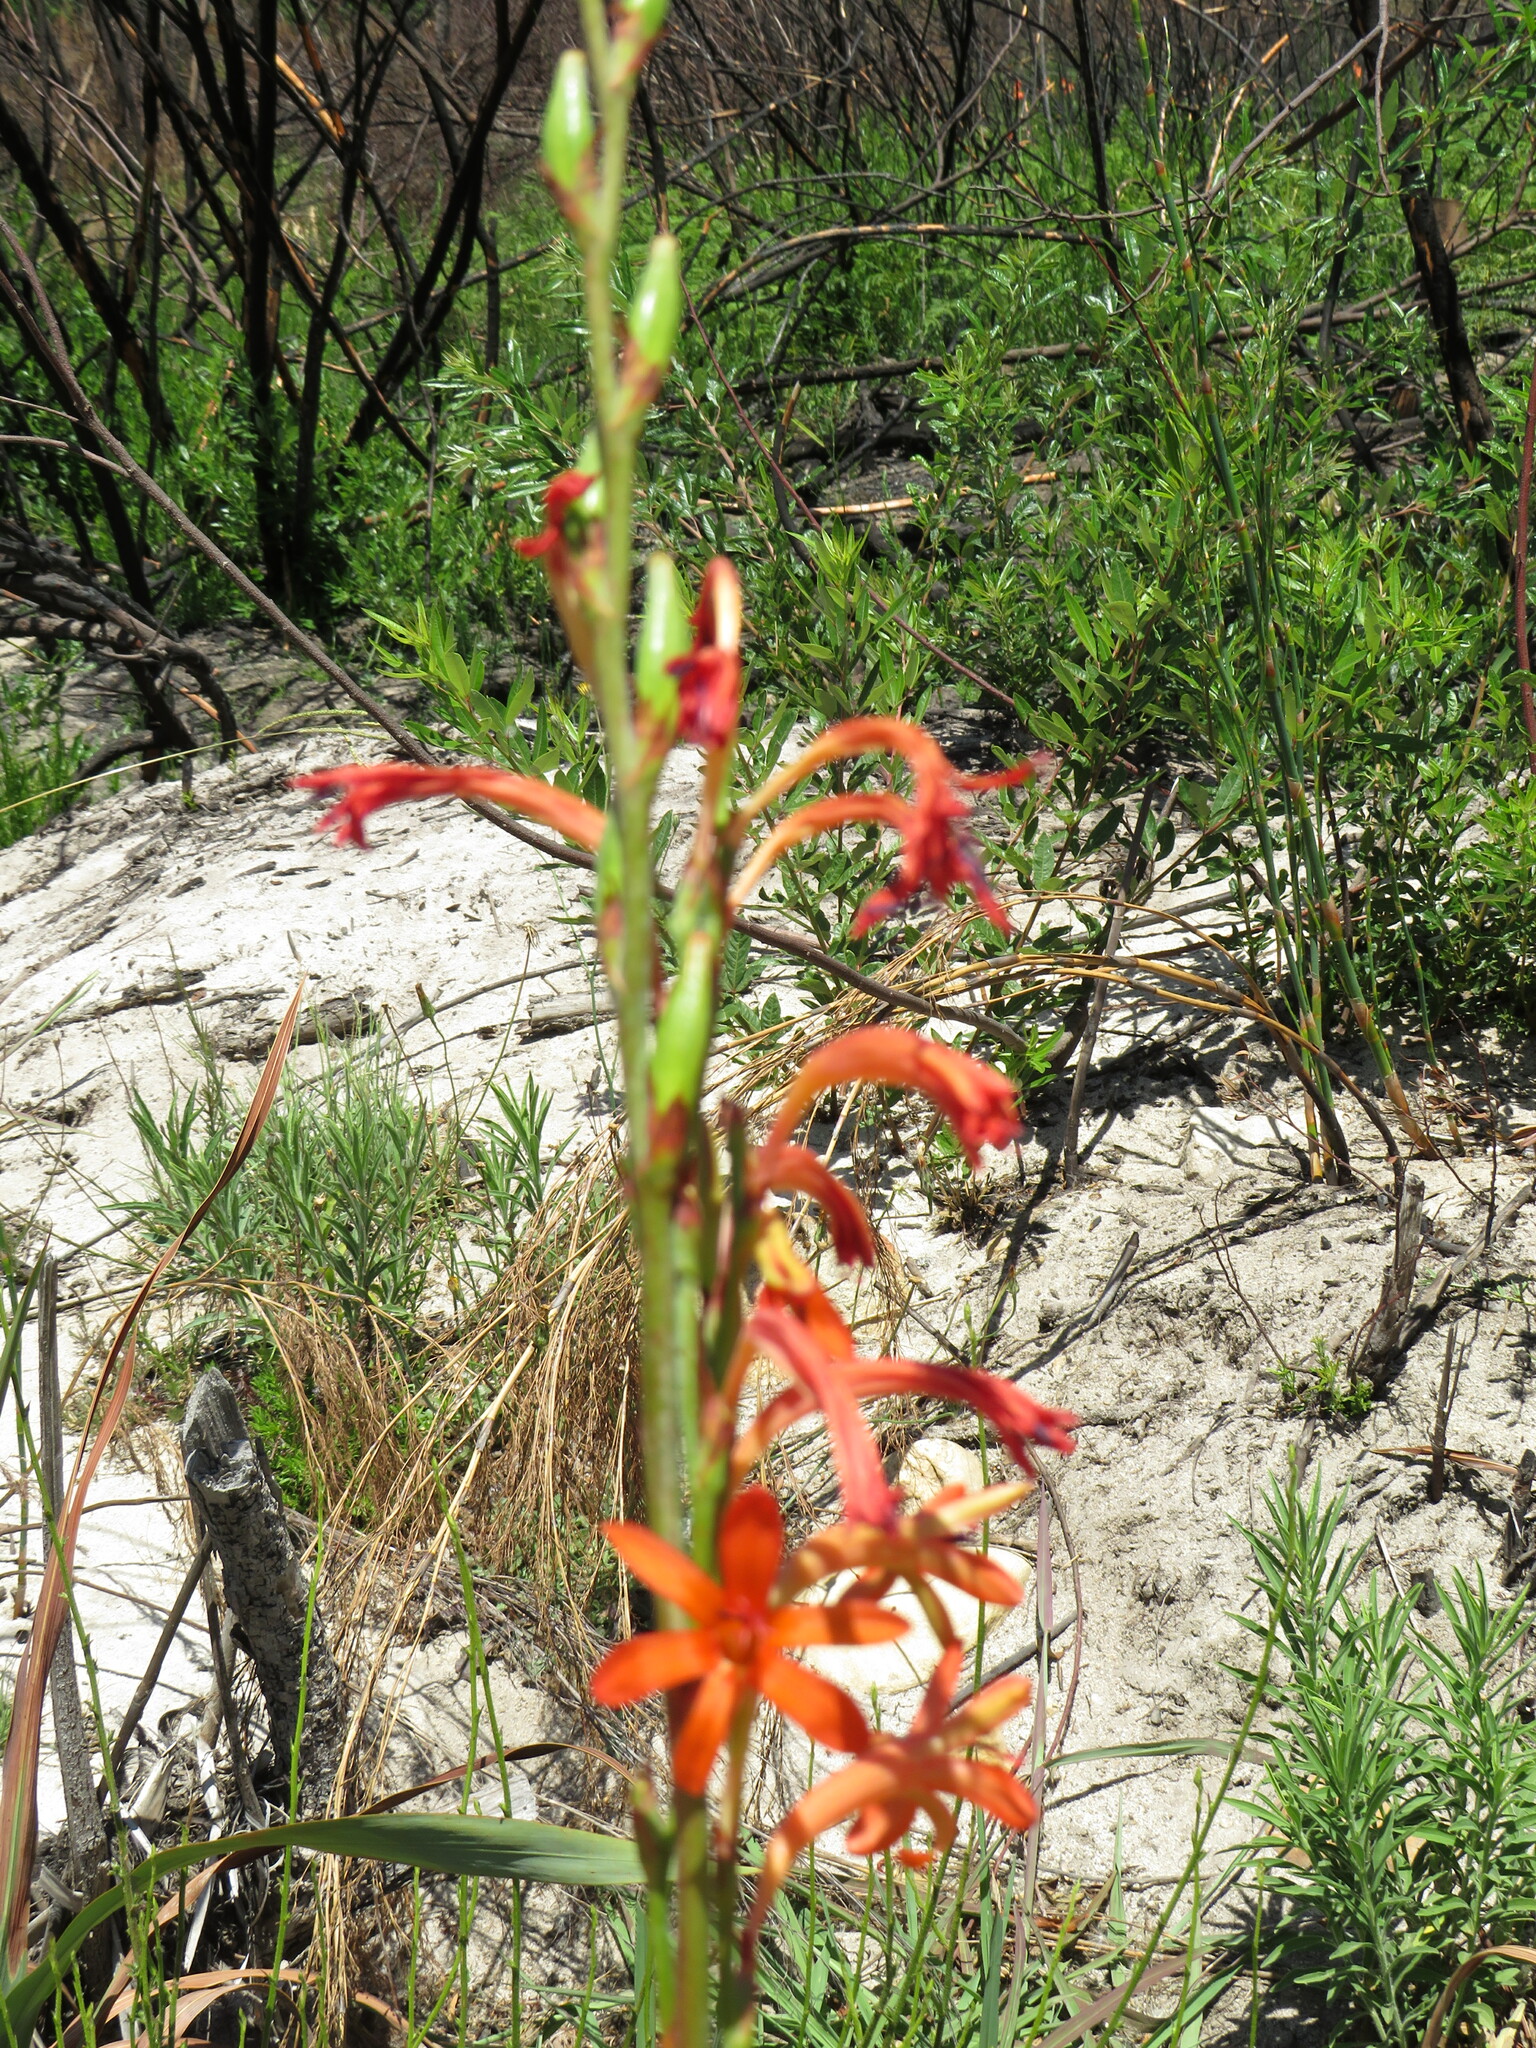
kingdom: Plantae
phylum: Tracheophyta
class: Liliopsida
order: Asparagales
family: Iridaceae
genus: Watsonia
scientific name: Watsonia angusta
